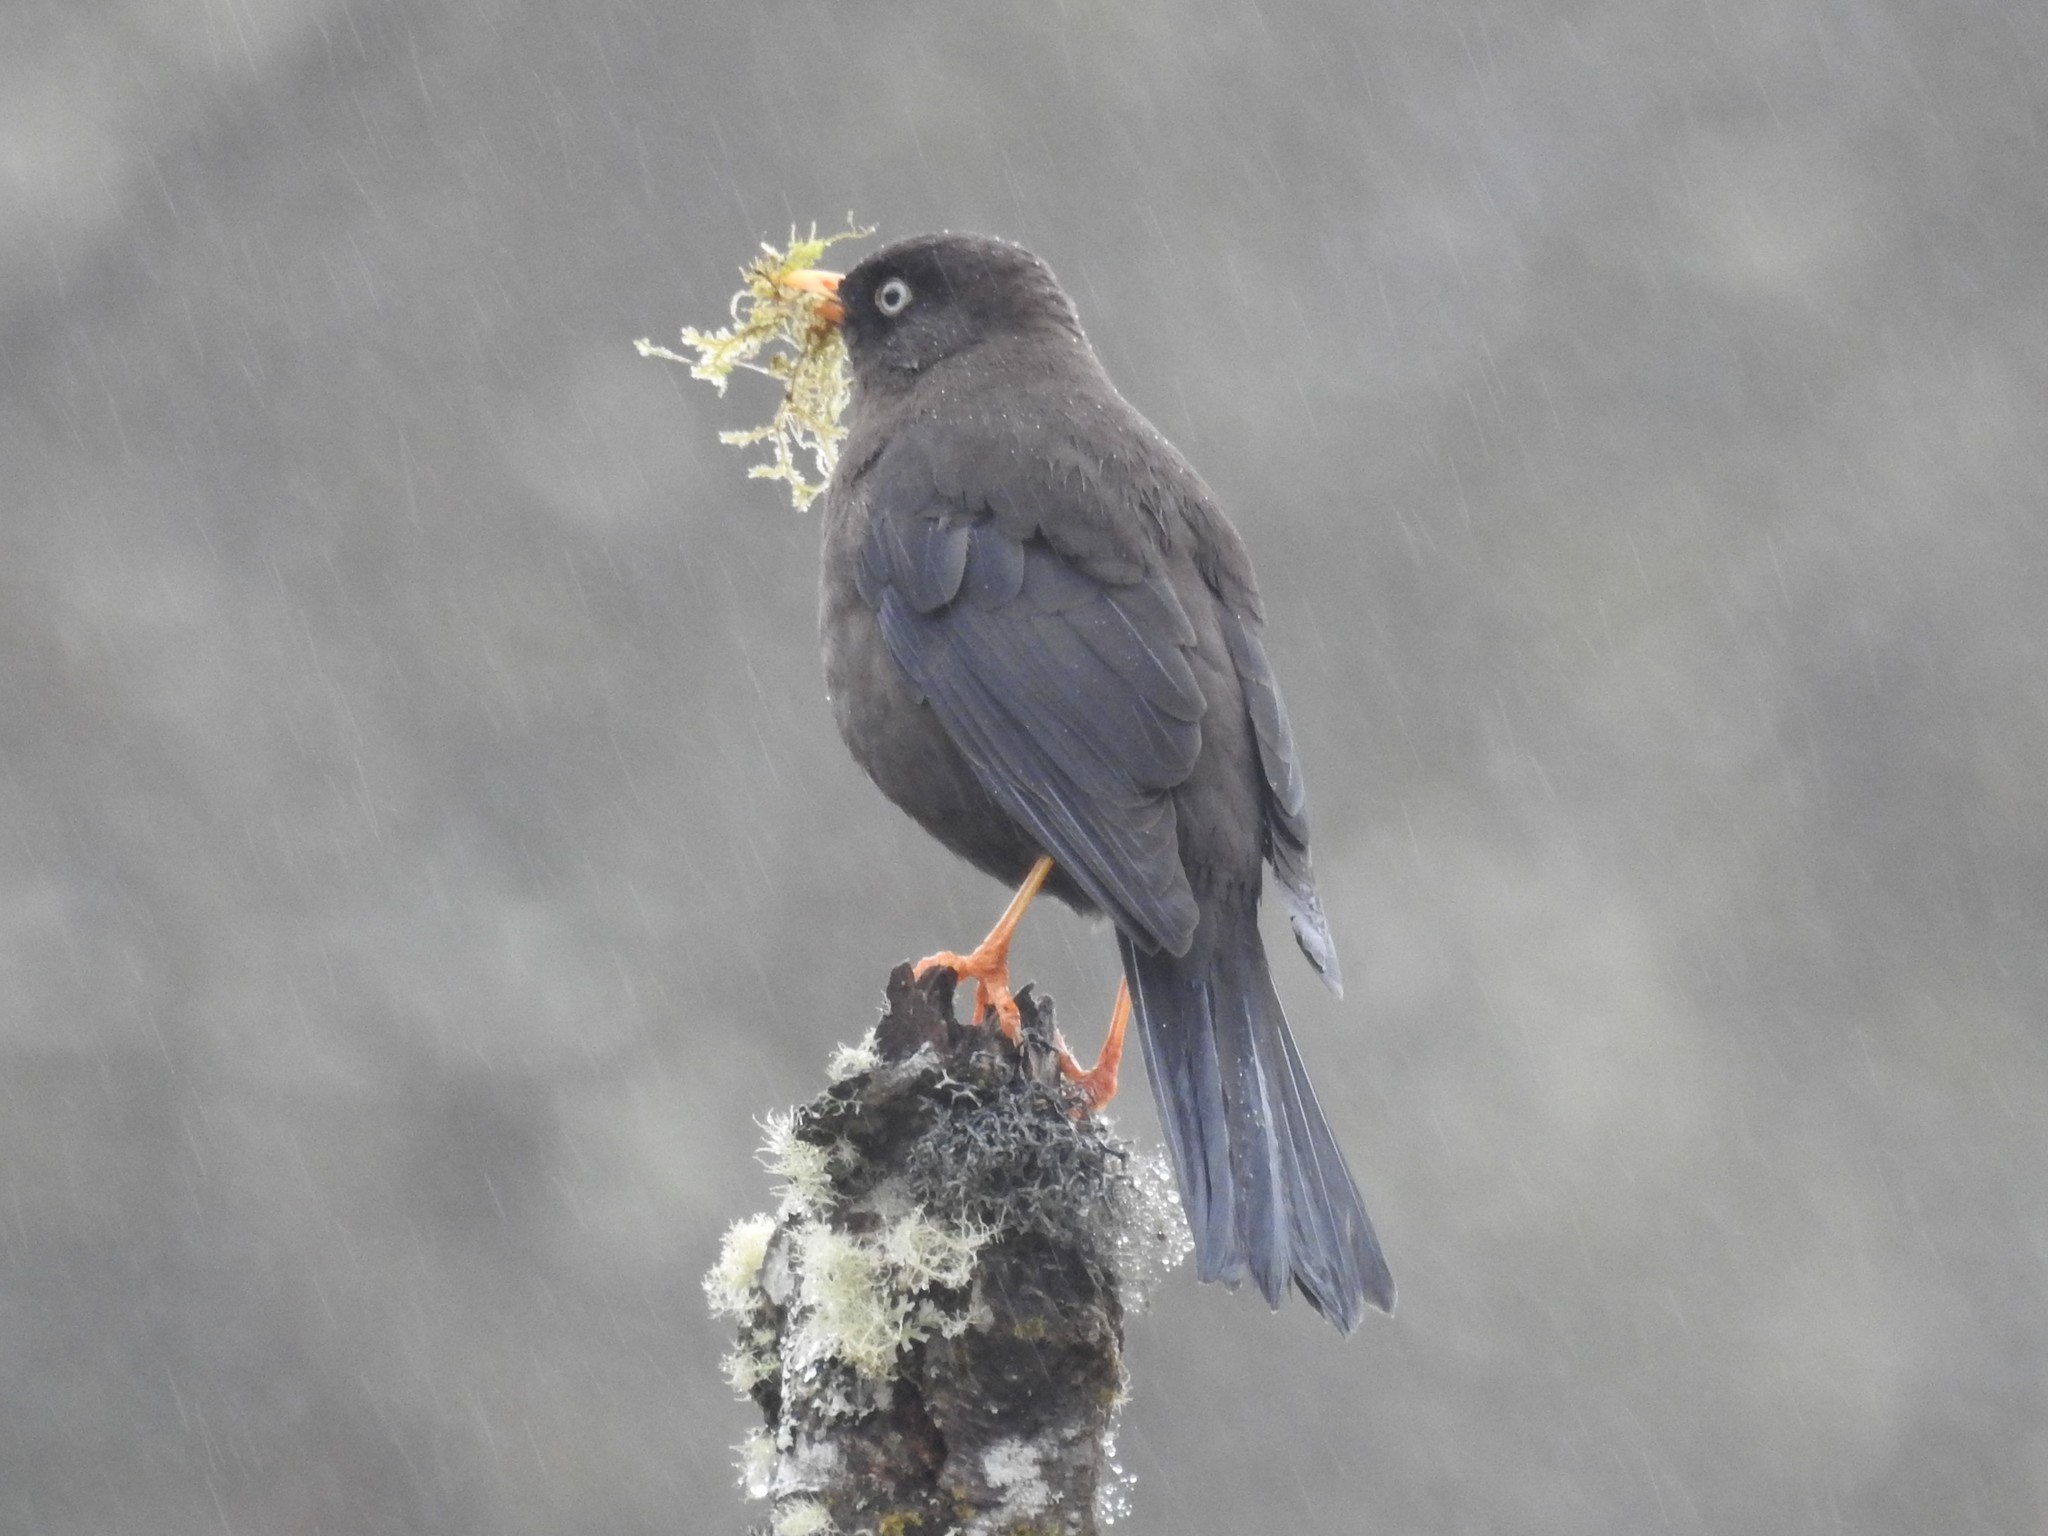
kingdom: Animalia
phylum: Chordata
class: Aves
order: Passeriformes
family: Turdidae
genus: Turdus
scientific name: Turdus nigrescens
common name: Sooty thrush
